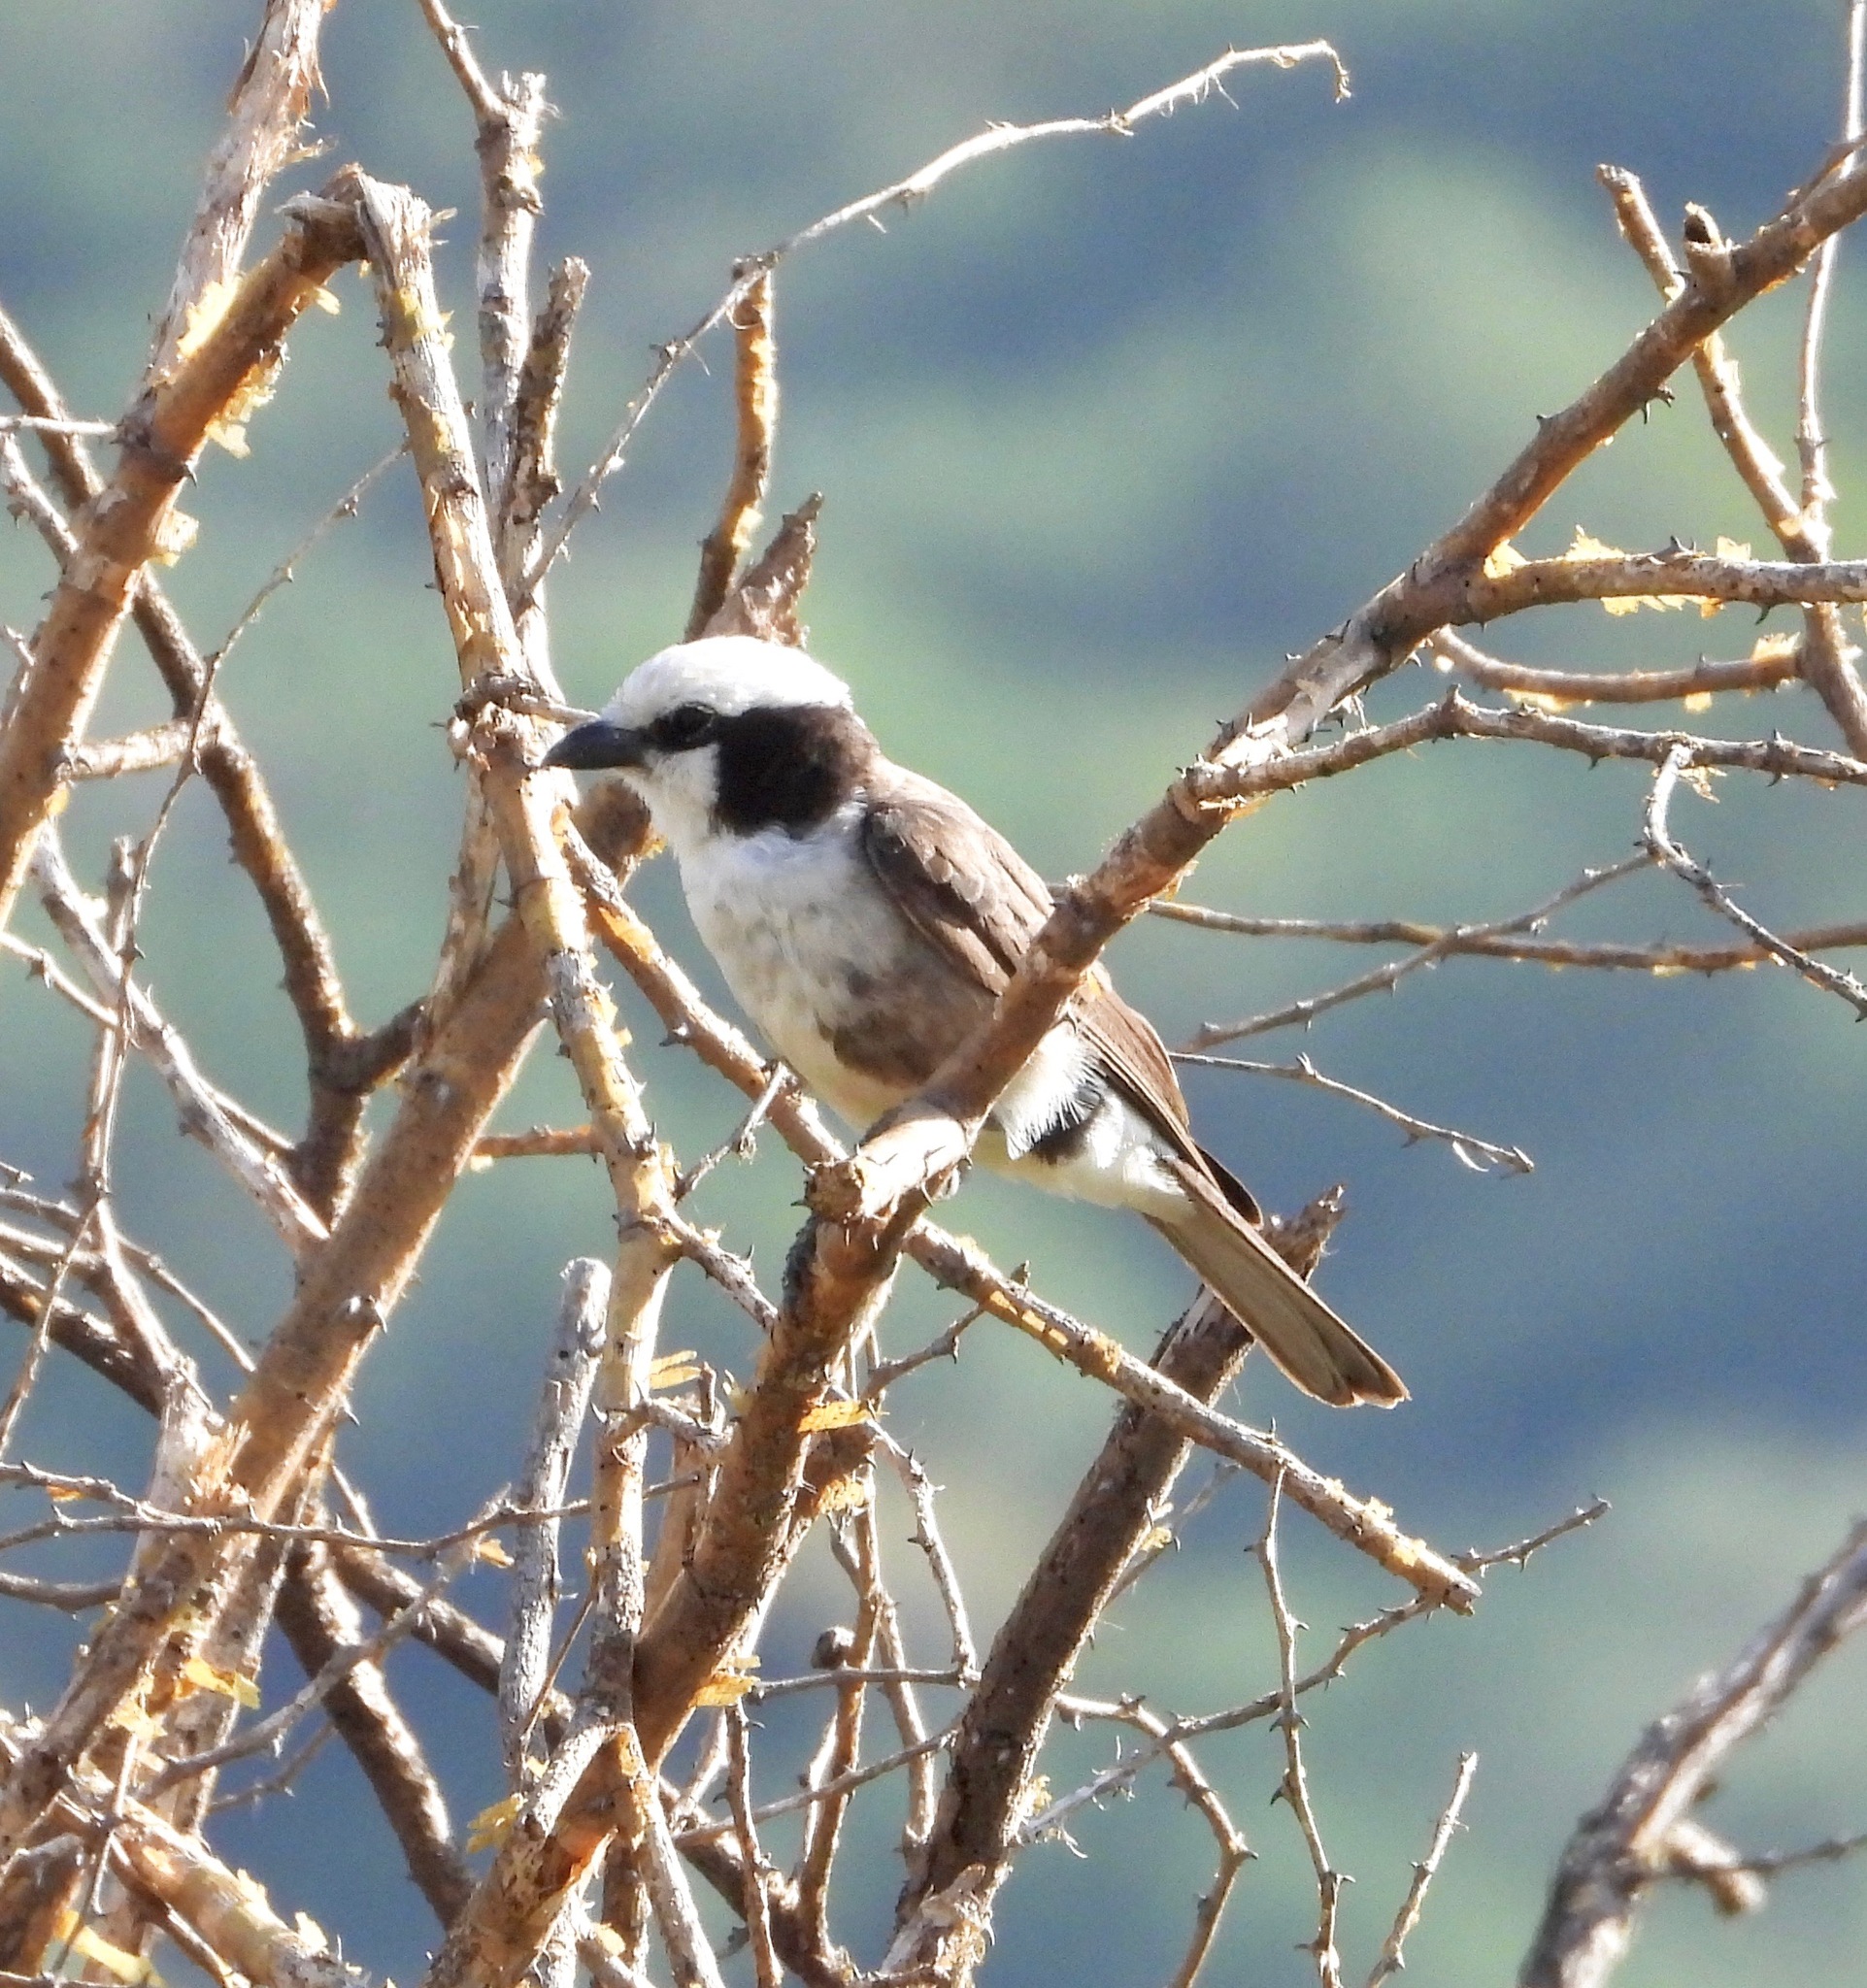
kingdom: Animalia
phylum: Chordata
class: Aves
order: Passeriformes
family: Laniidae
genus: Eurocephalus
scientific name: Eurocephalus ruppelli
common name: Northern white-crowned shrike
